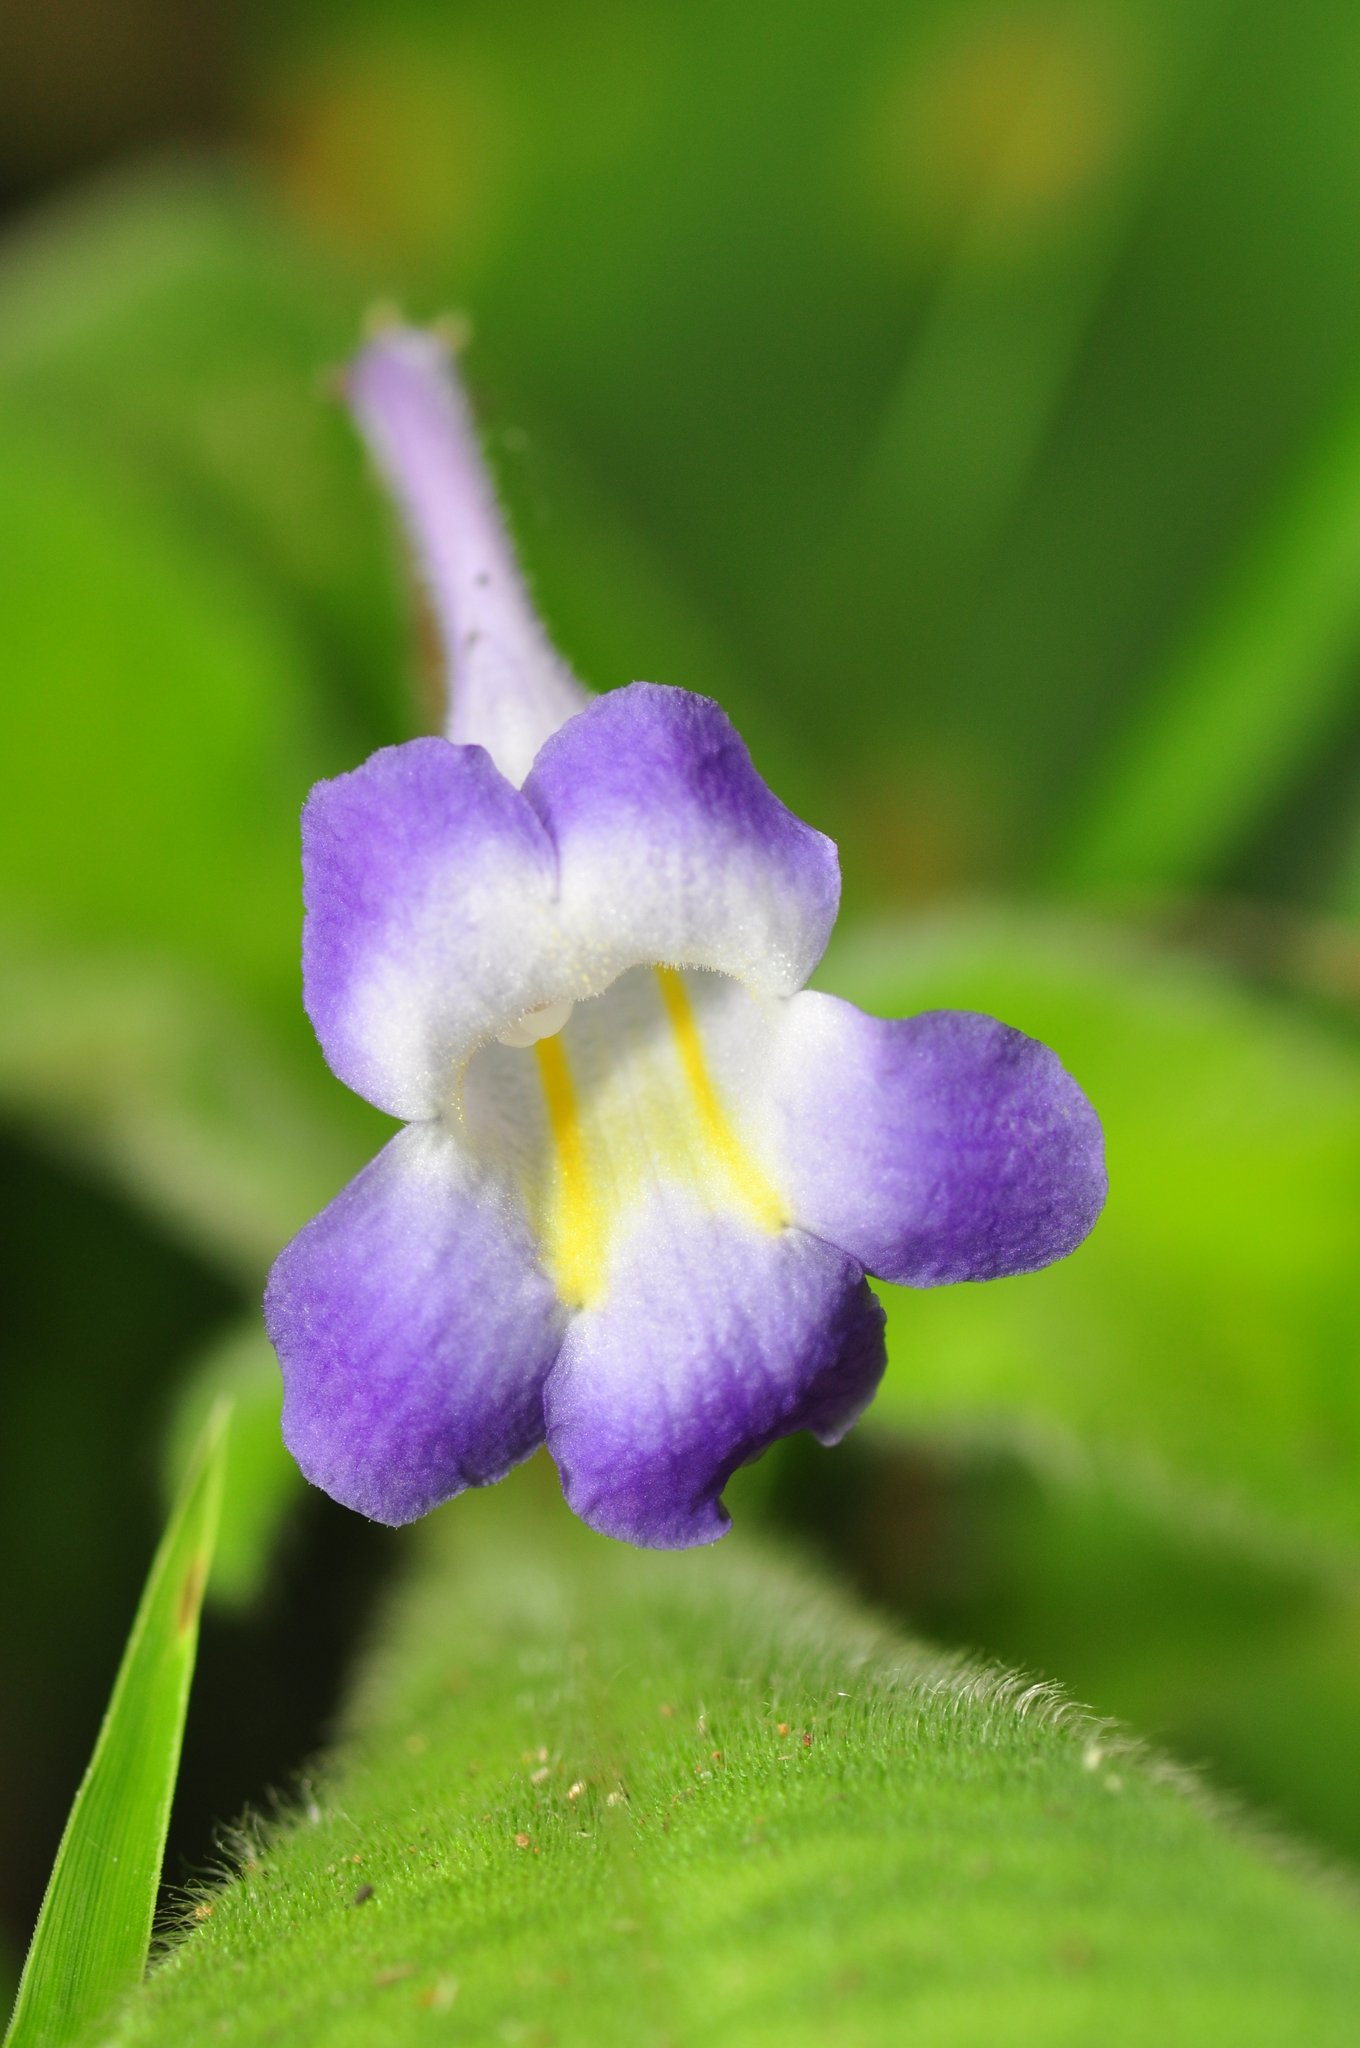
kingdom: Plantae
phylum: Tracheophyta
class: Magnoliopsida
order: Lamiales
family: Gesneriaceae
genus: Codonoboea
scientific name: Codonoboea quinquevulnera
